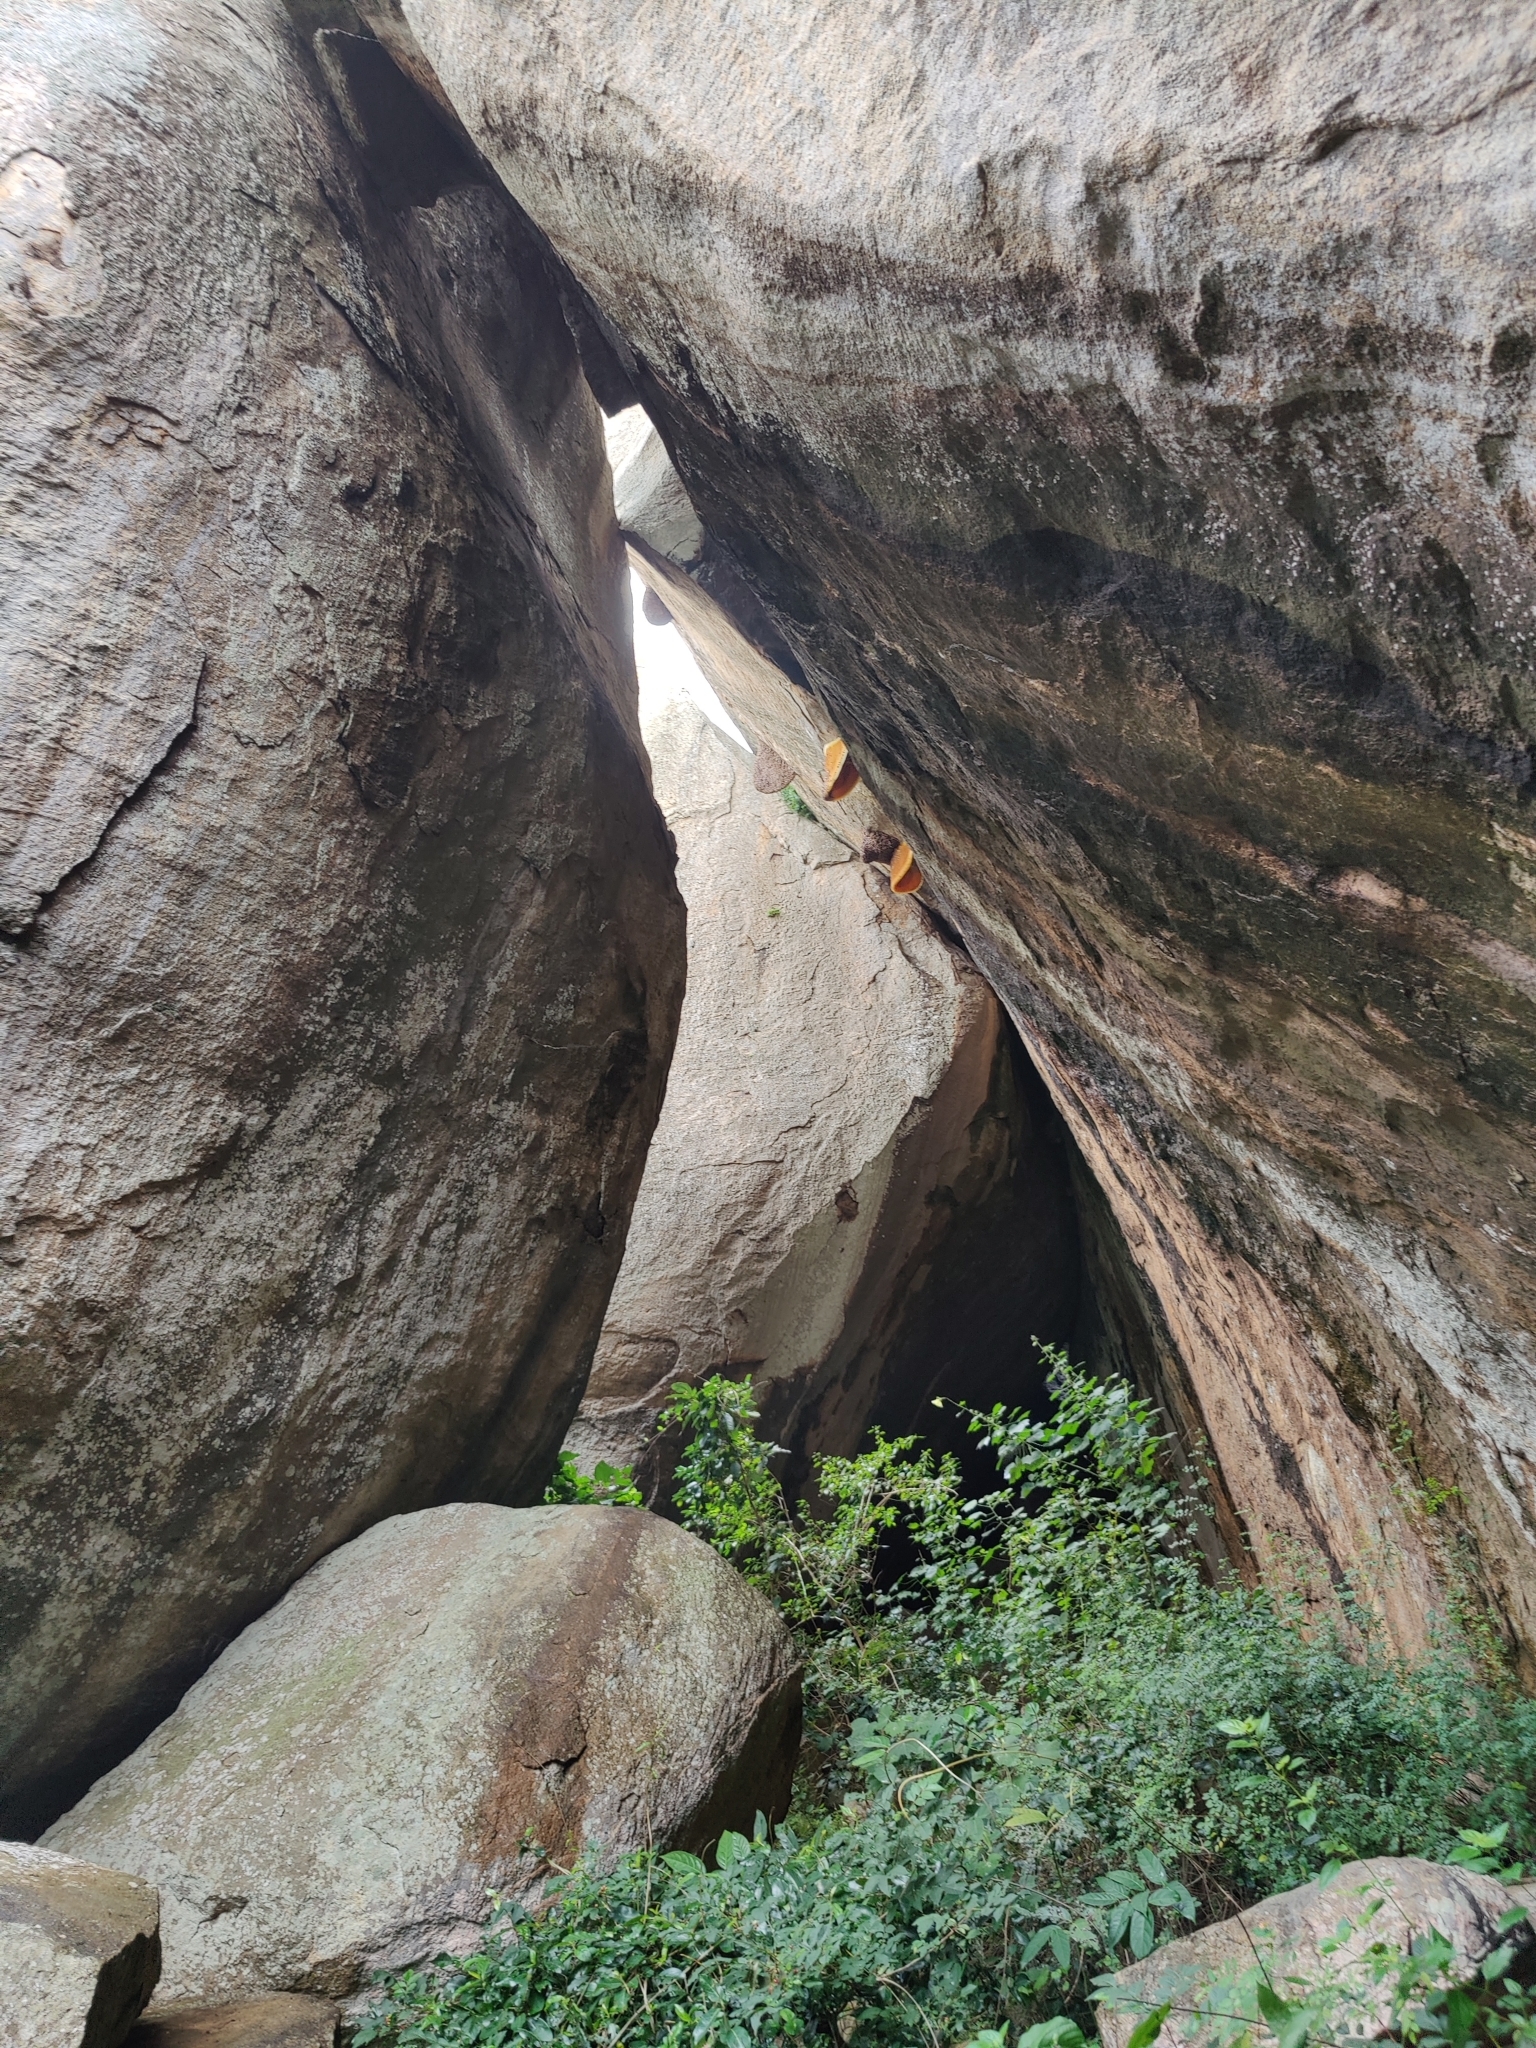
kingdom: Animalia
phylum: Arthropoda
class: Insecta
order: Hymenoptera
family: Apidae
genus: Apis
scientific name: Apis dorsata
